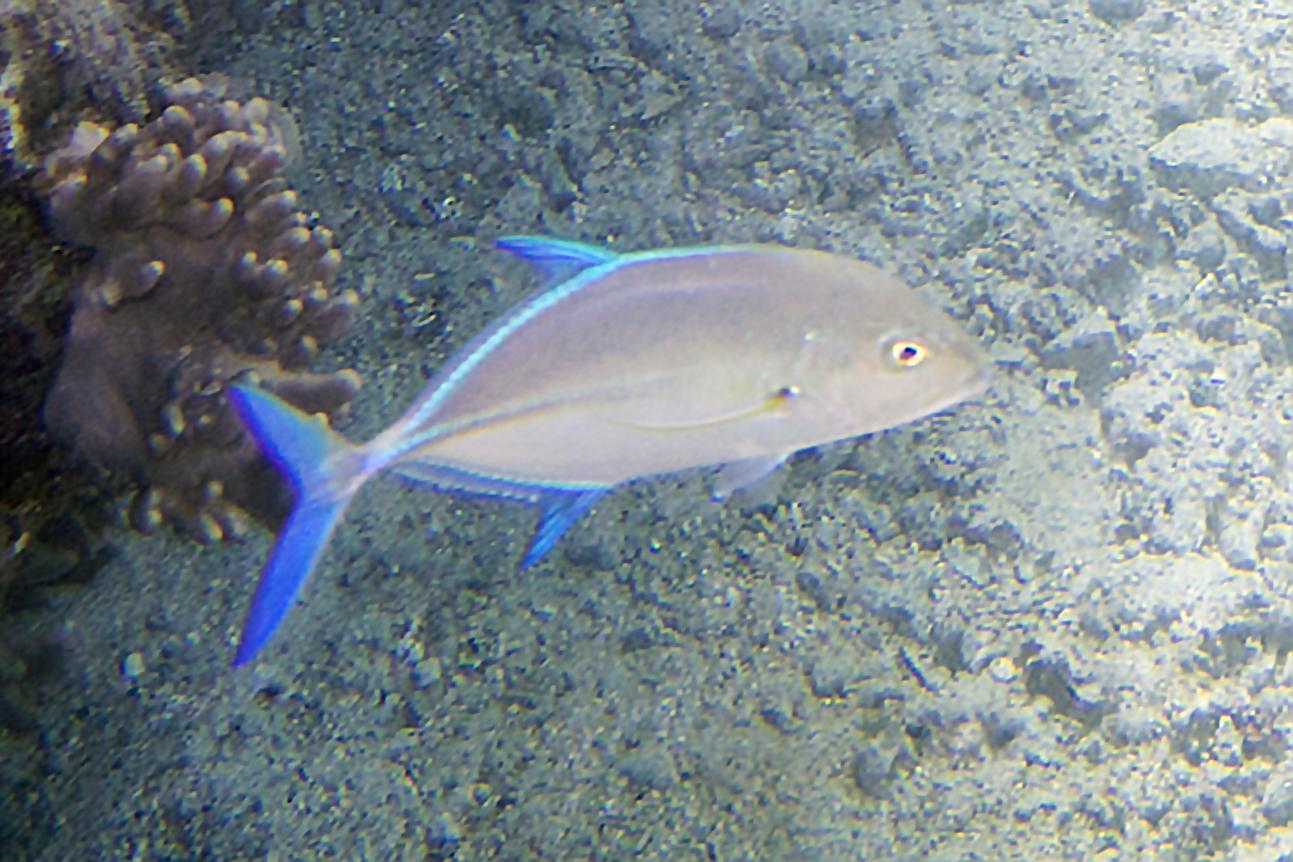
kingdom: Animalia
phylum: Chordata
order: Perciformes
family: Carangidae
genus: Caranx
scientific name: Caranx melampygus
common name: Bluefin trevally
